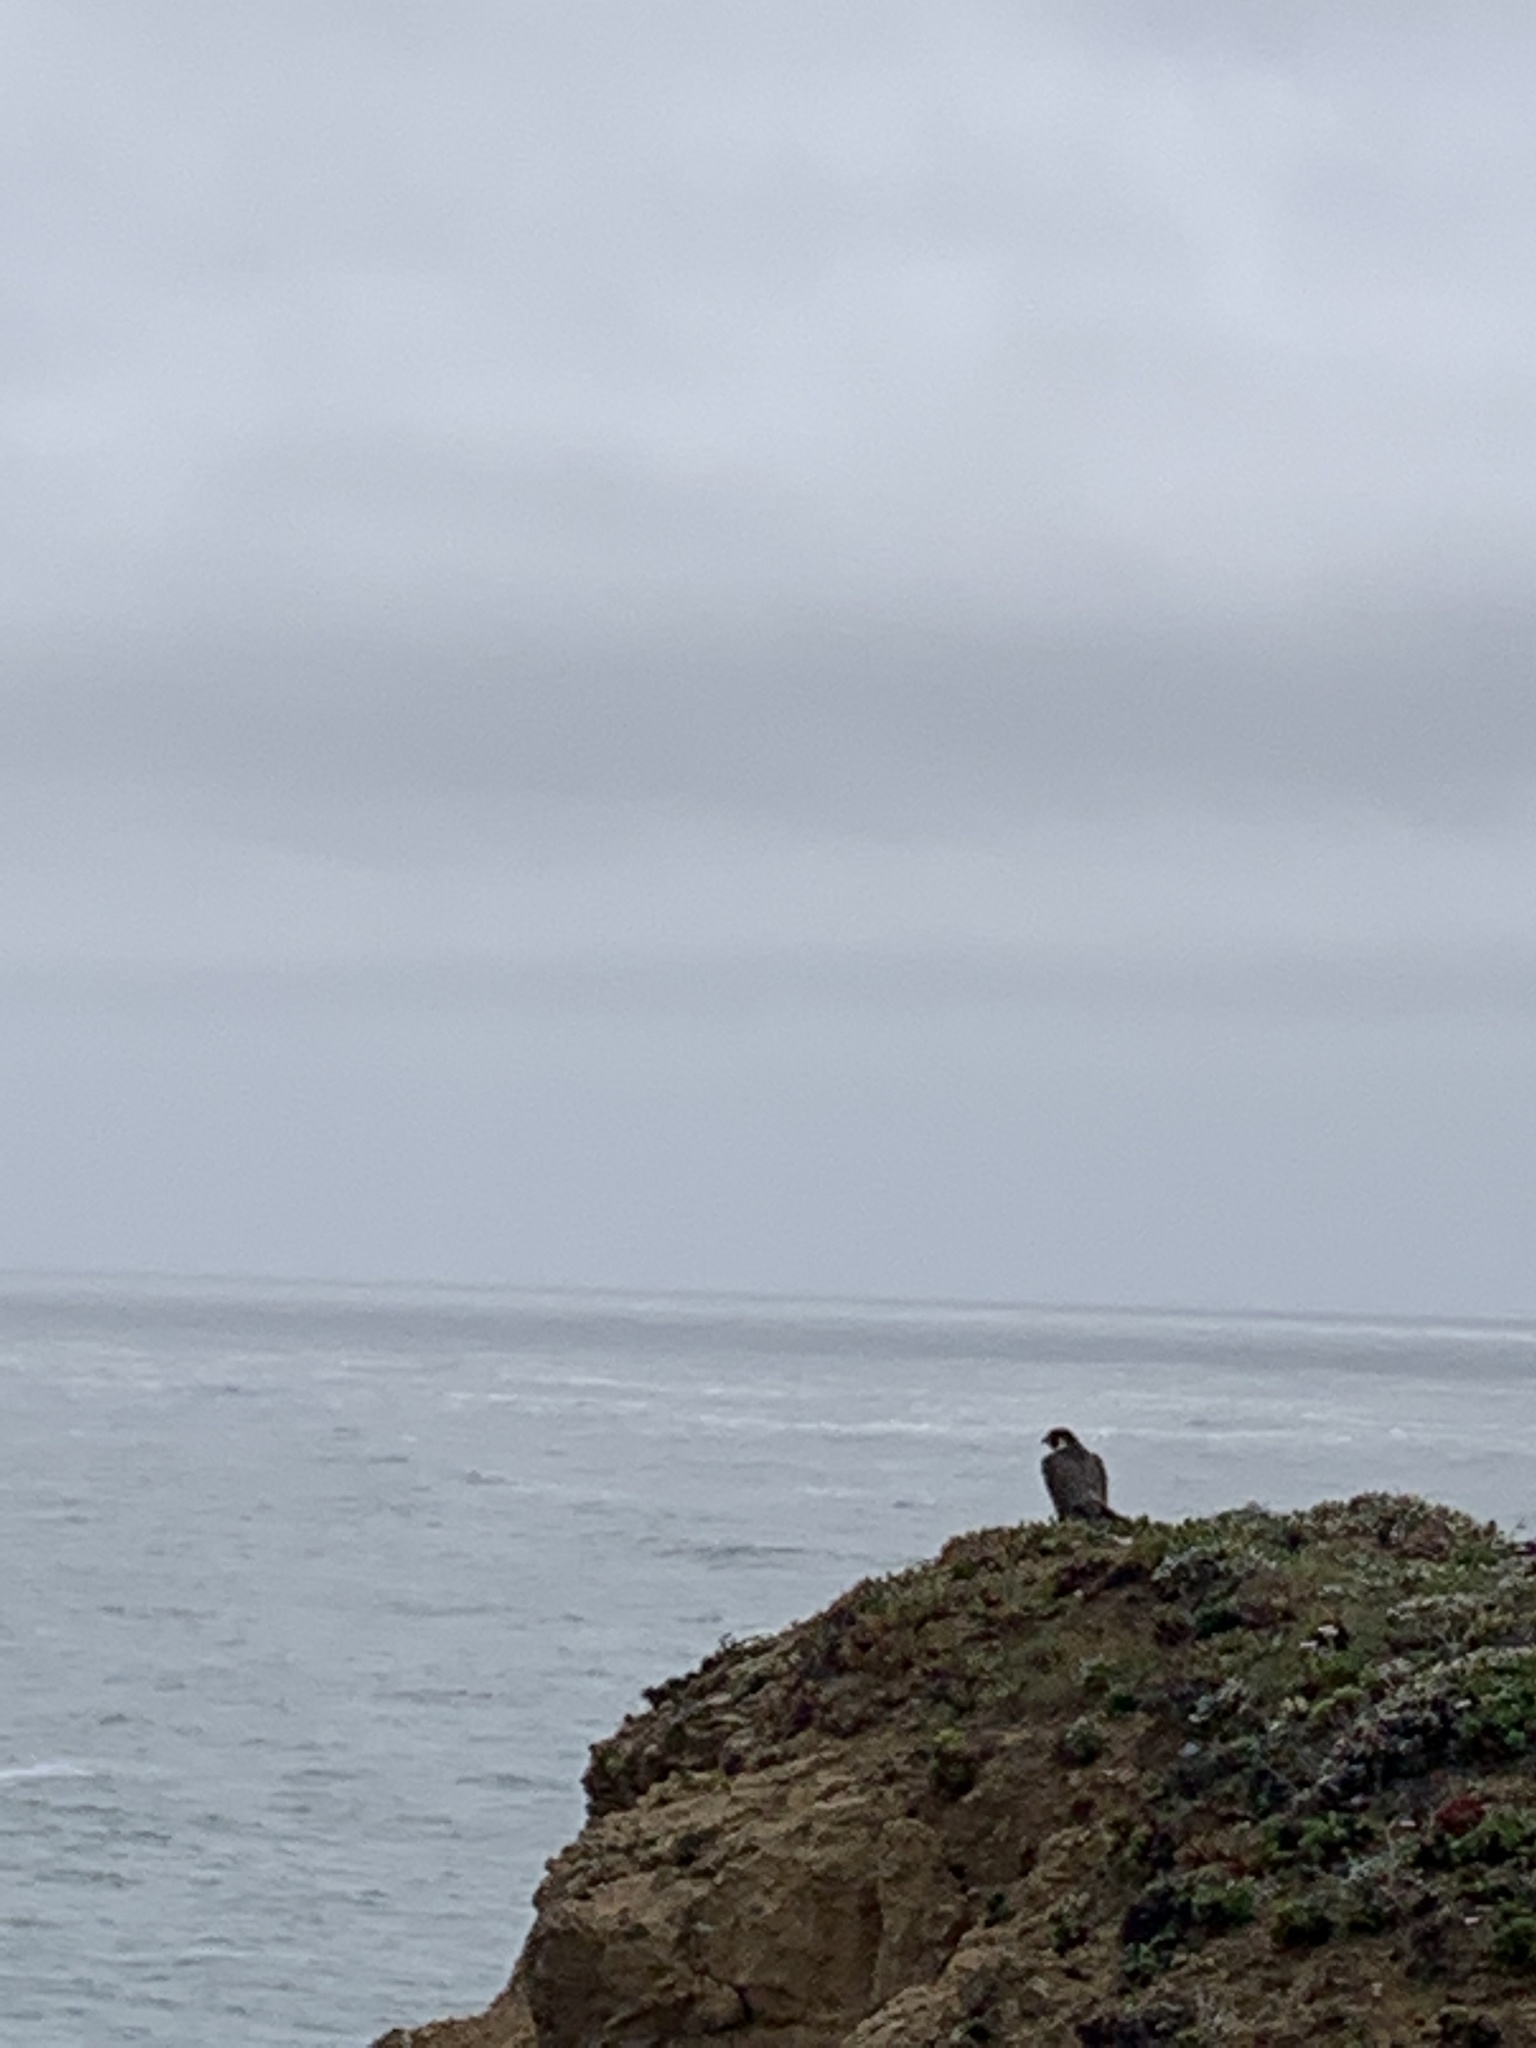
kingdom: Animalia
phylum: Chordata
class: Aves
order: Falconiformes
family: Falconidae
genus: Falco
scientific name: Falco peregrinus
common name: Peregrine falcon
